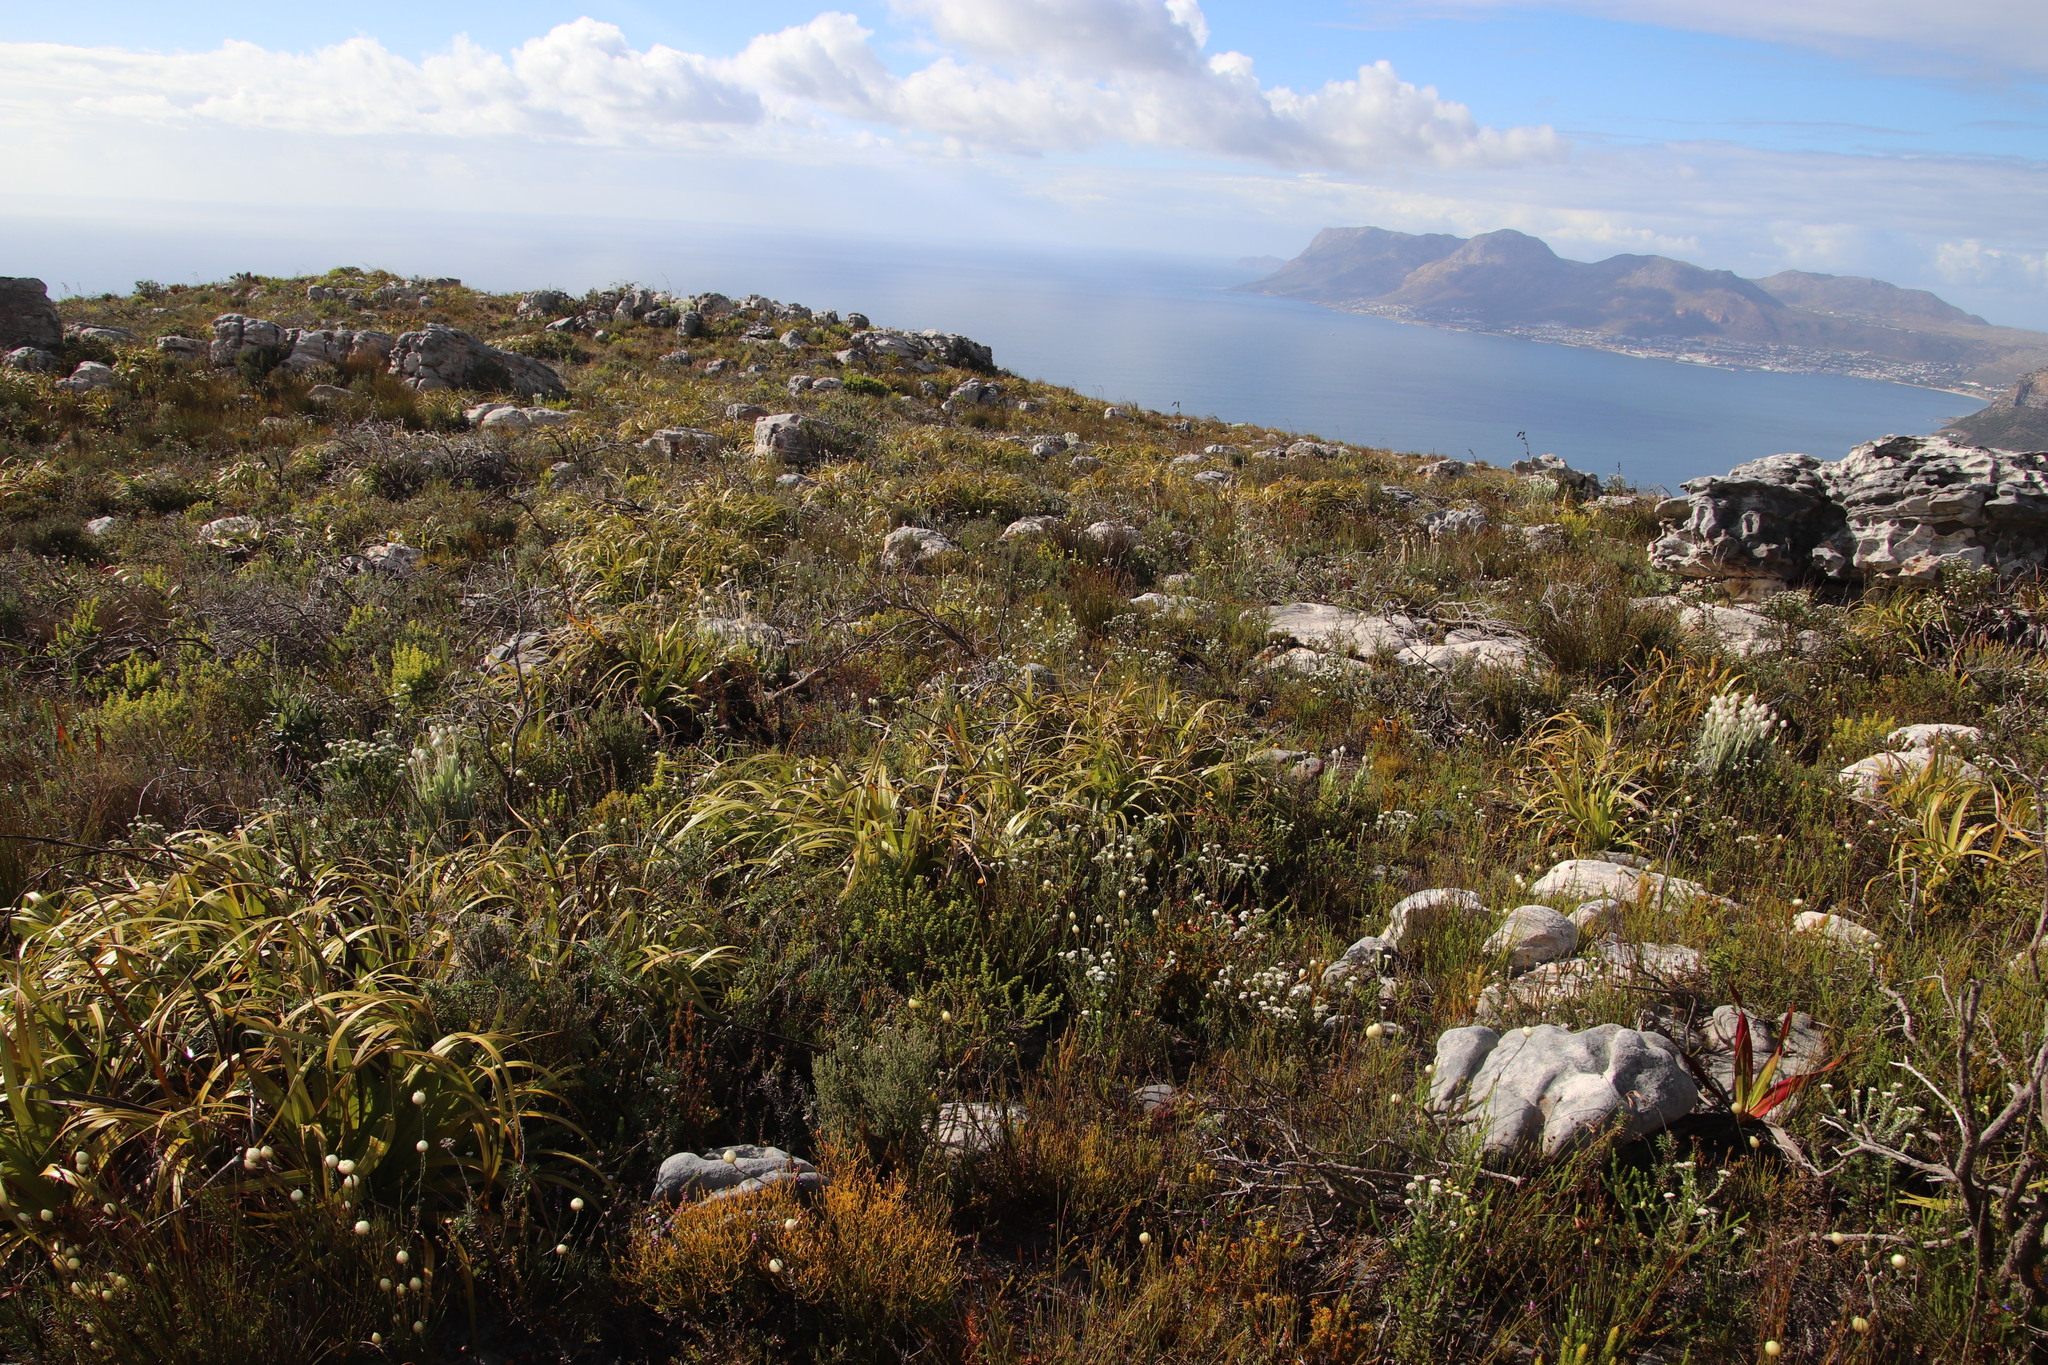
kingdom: Plantae
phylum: Tracheophyta
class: Liliopsida
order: Poales
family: Cyperaceae
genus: Tetraria
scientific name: Tetraria thermalis
